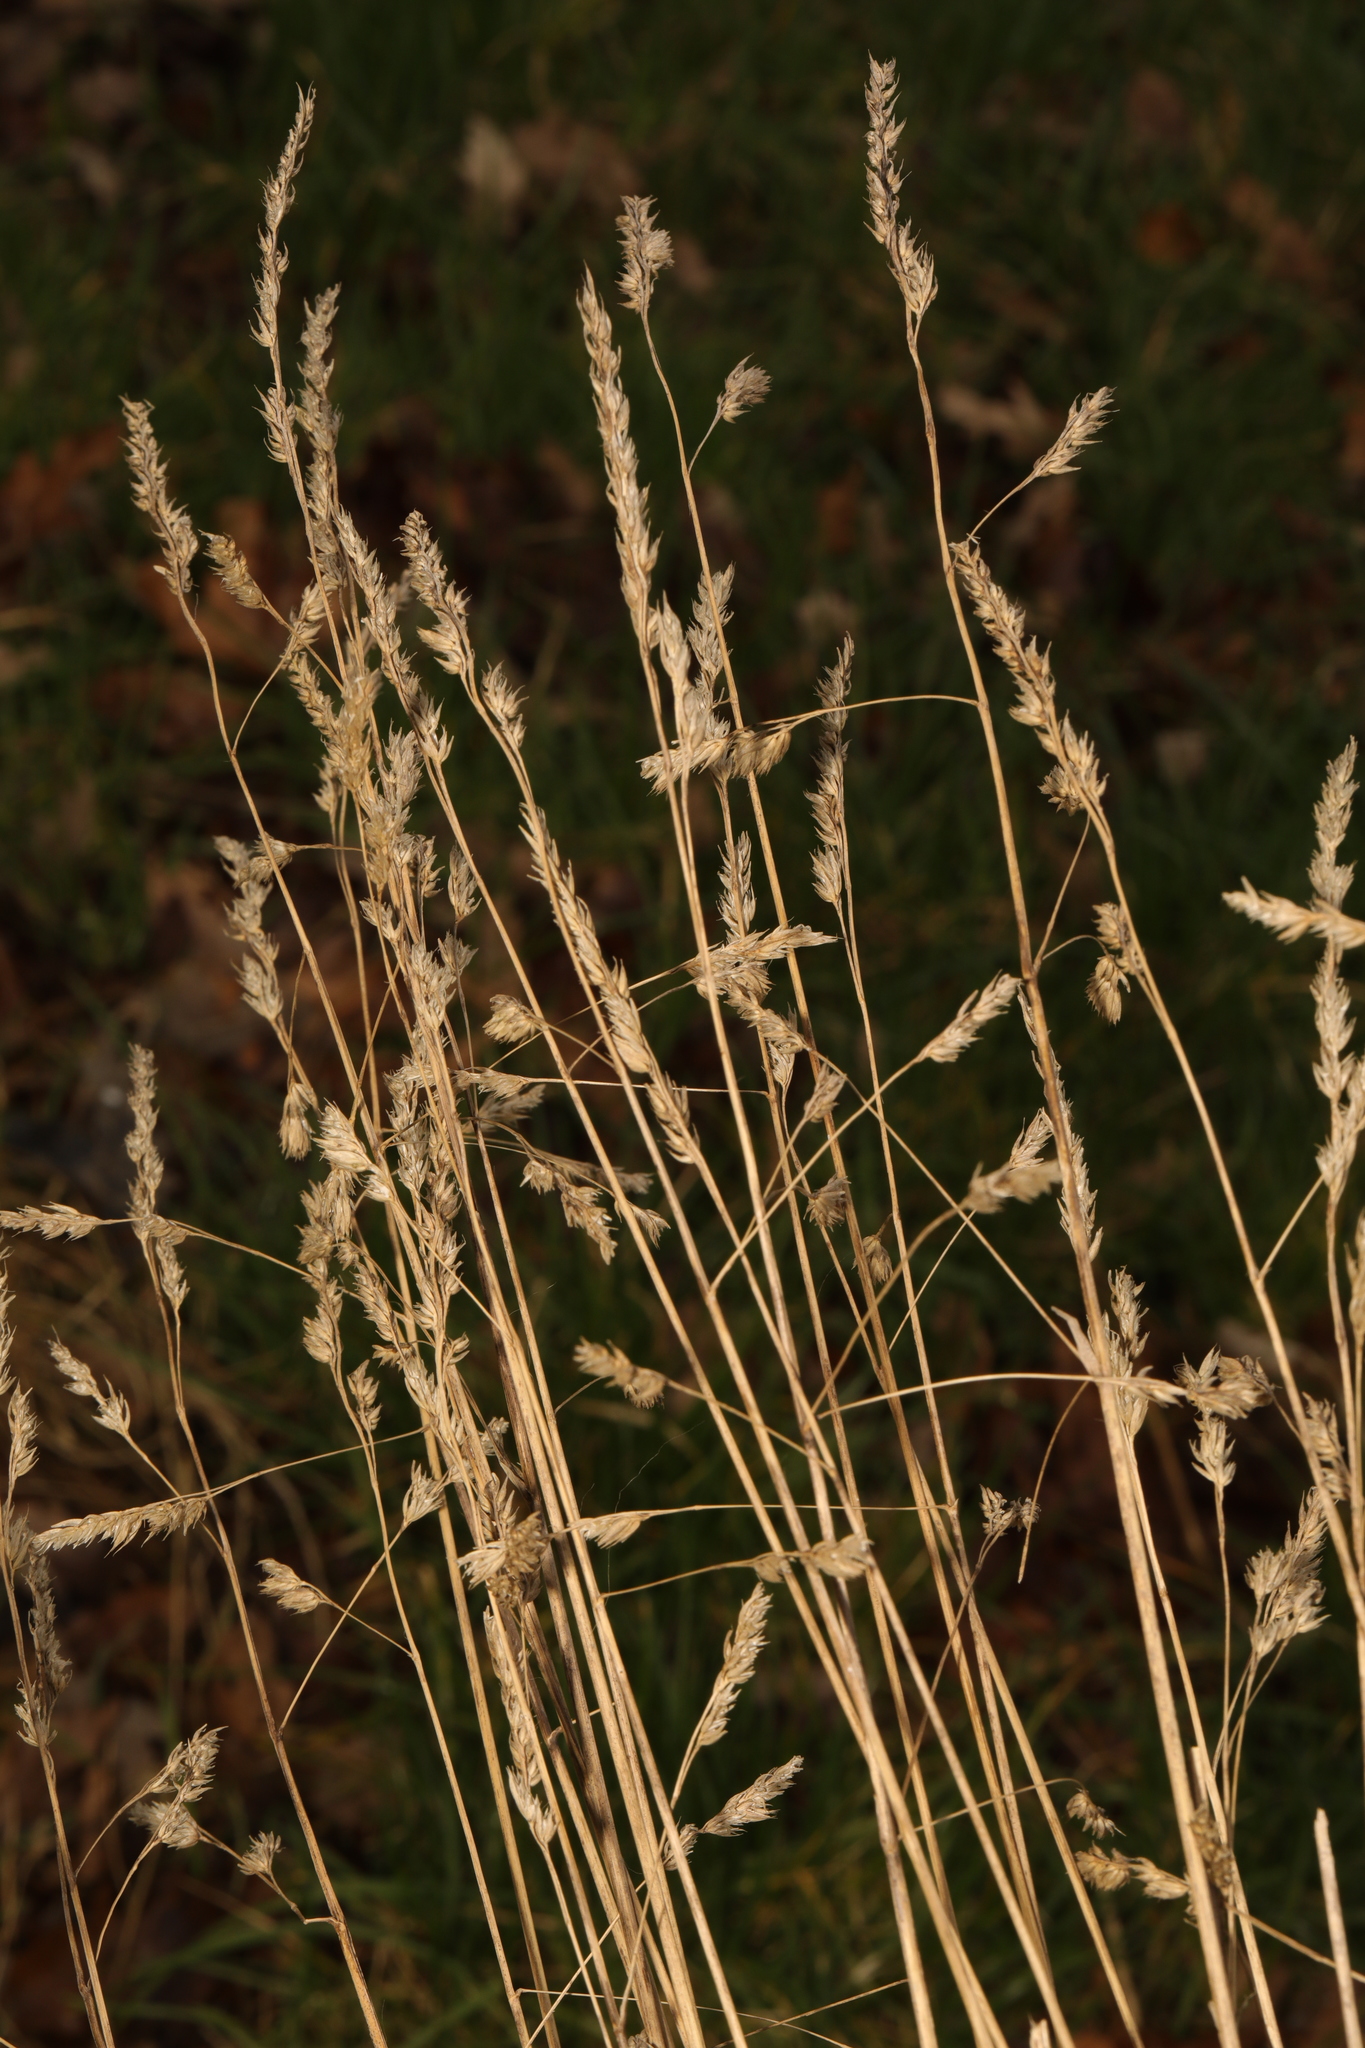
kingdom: Plantae
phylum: Tracheophyta
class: Liliopsida
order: Poales
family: Poaceae
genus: Dactylis
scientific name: Dactylis glomerata
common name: Orchardgrass
